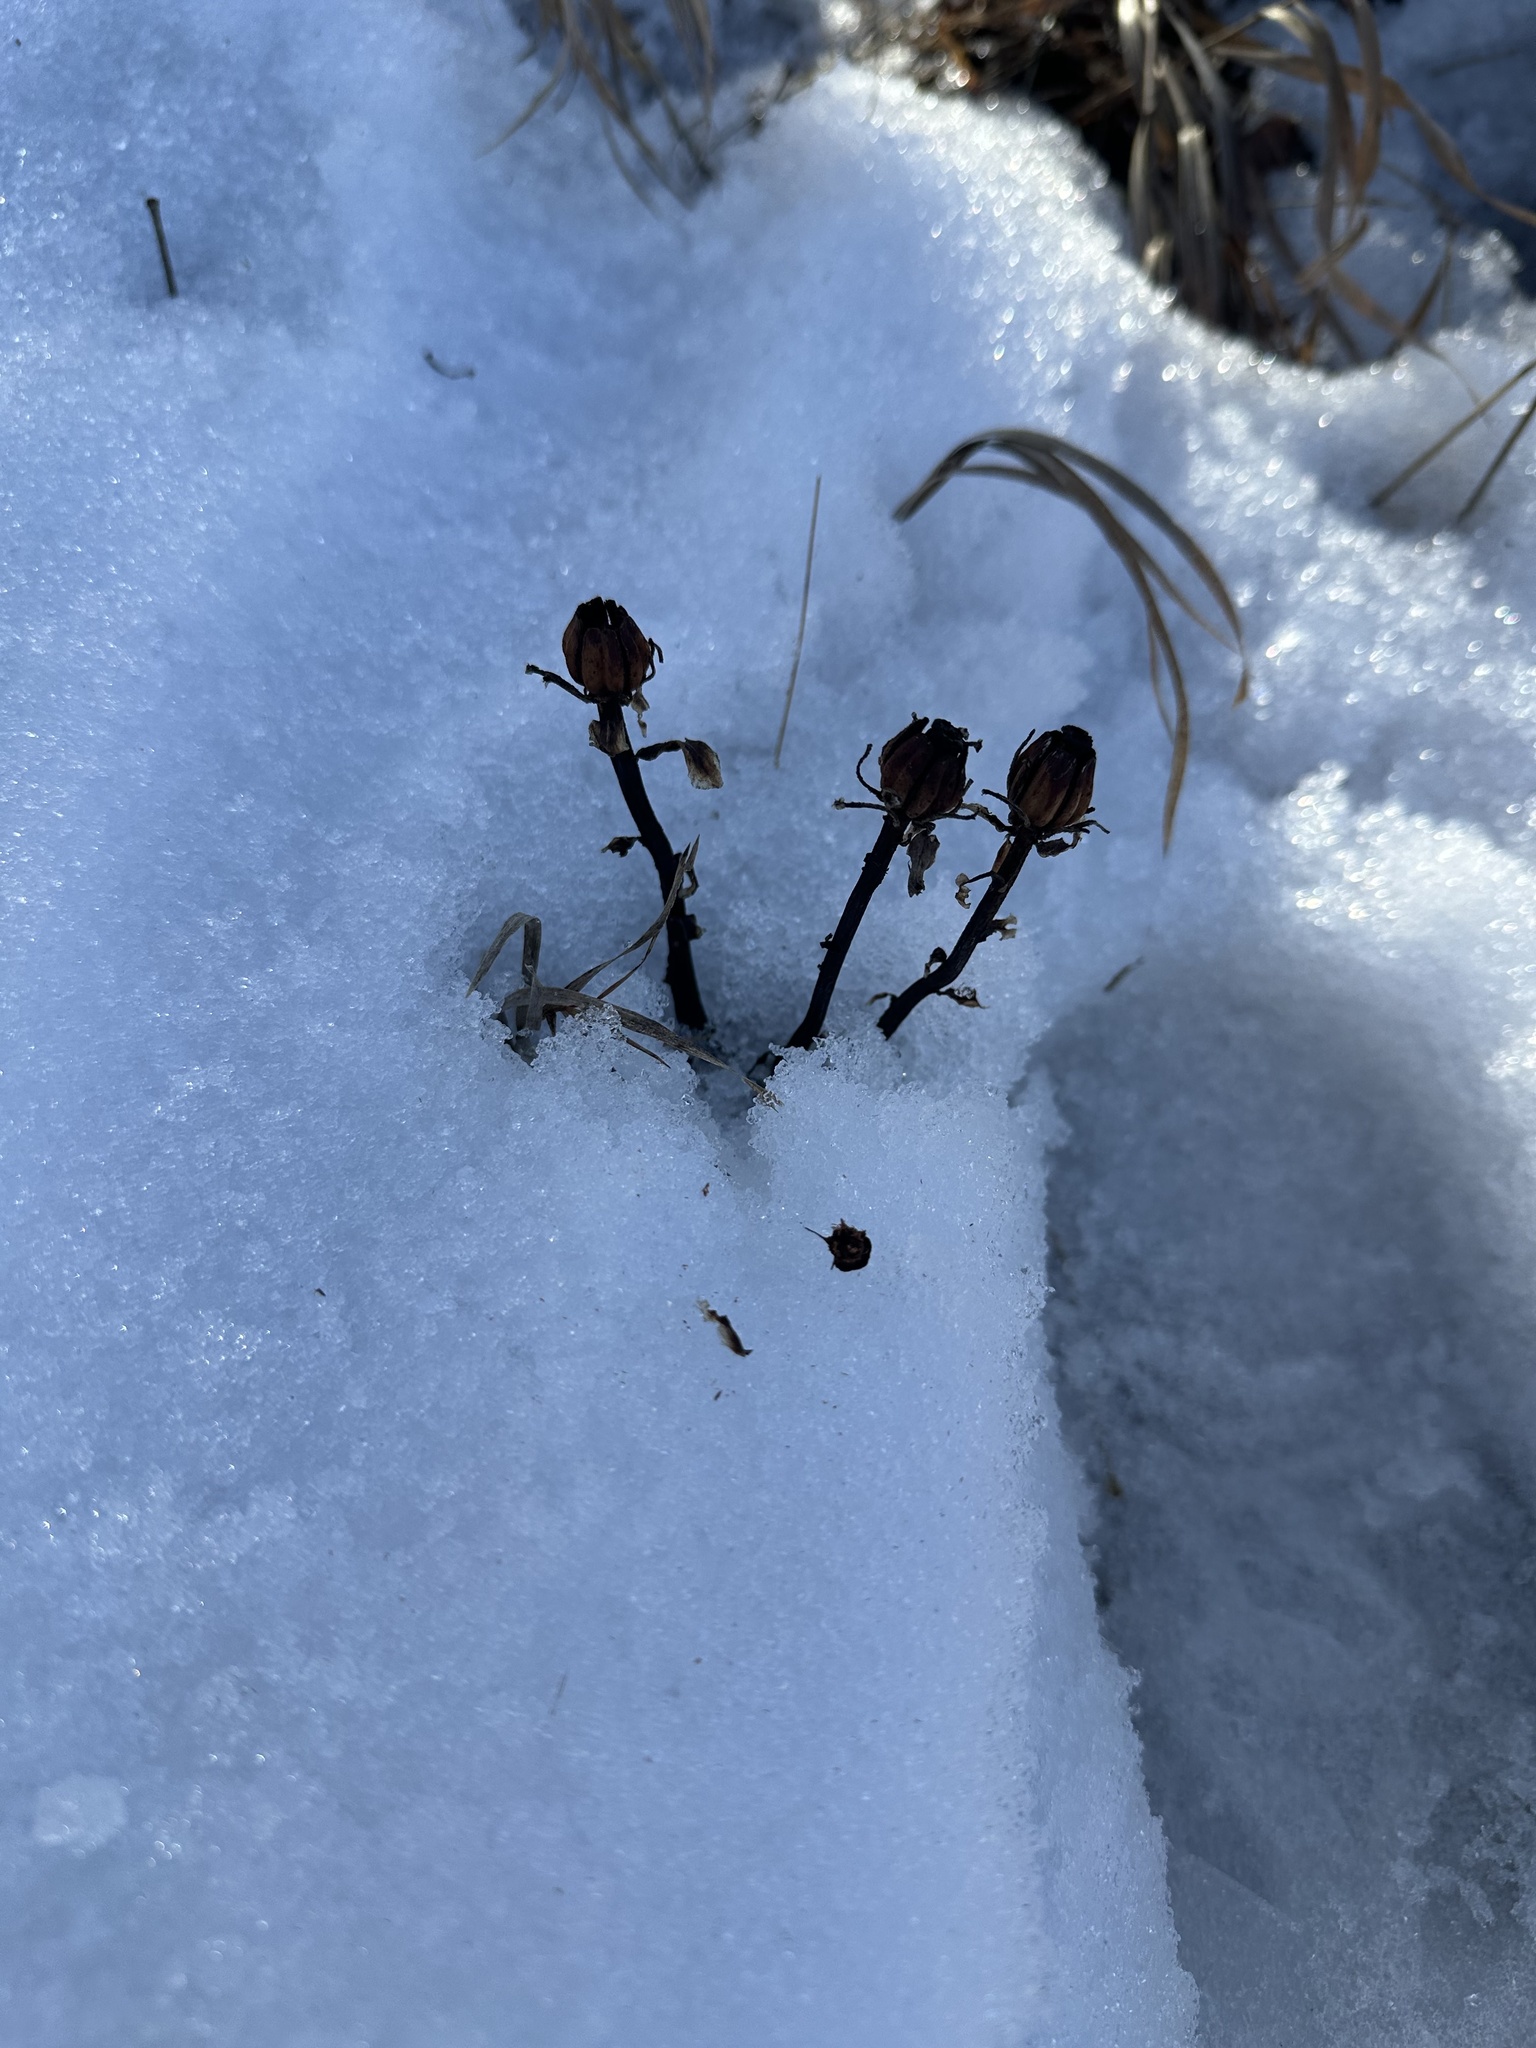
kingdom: Plantae
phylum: Tracheophyta
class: Magnoliopsida
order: Ericales
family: Ericaceae
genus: Monotropa
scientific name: Monotropa uniflora
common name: Convulsion root
